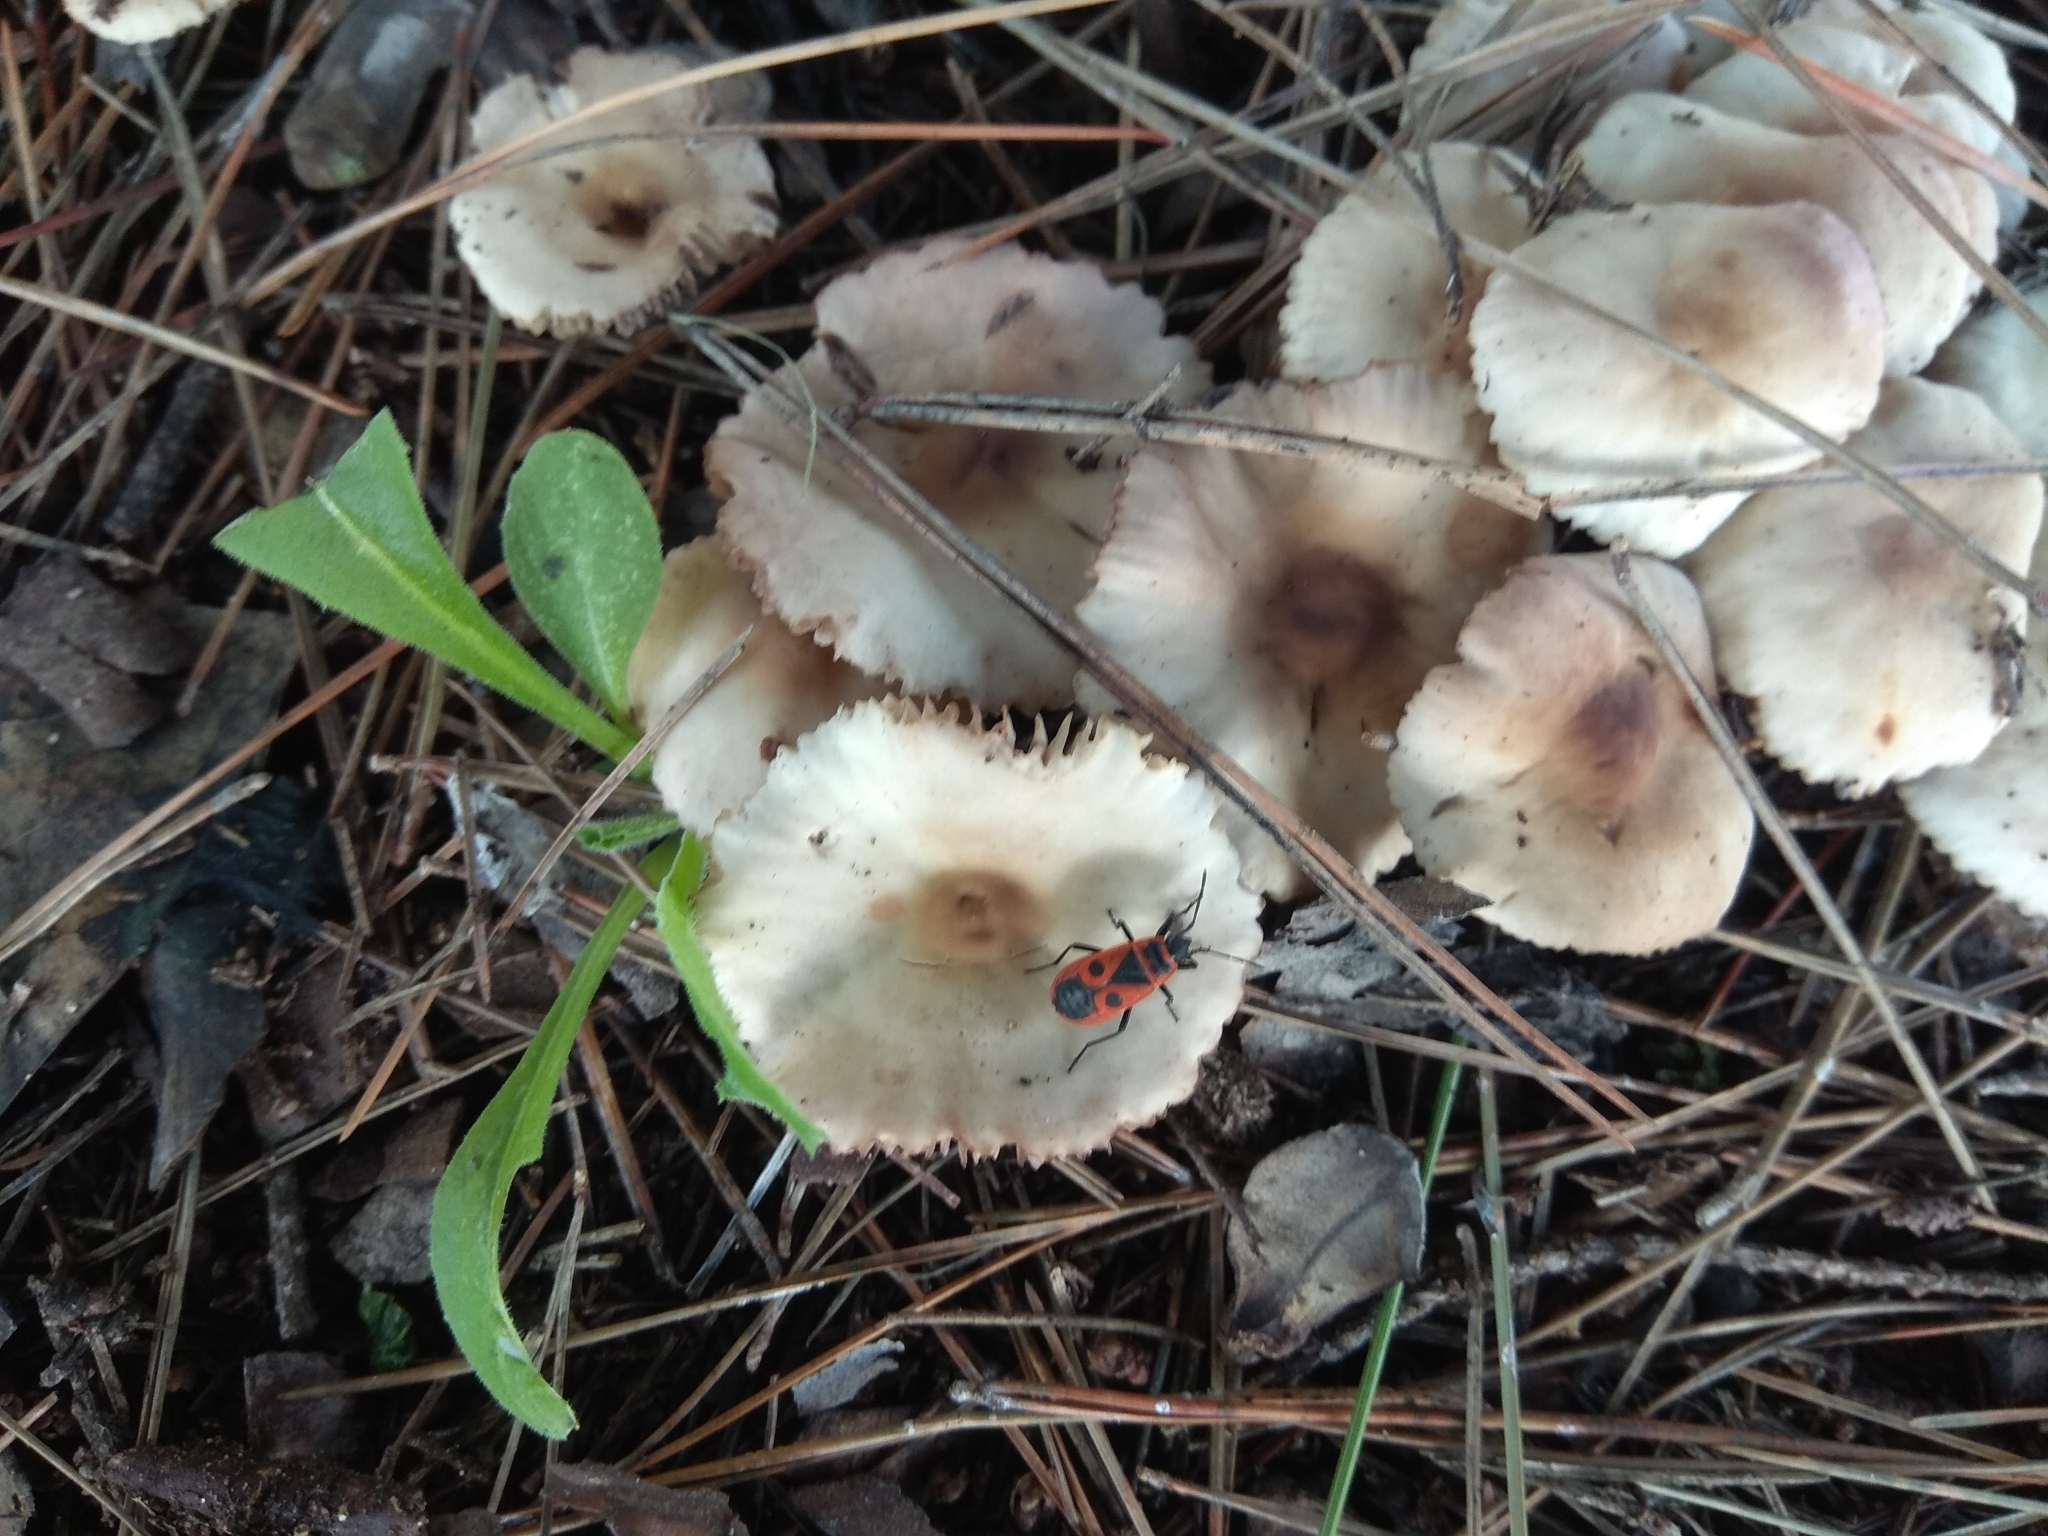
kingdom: Animalia
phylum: Arthropoda
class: Insecta
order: Hemiptera
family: Pyrrhocoridae
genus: Pyrrhocoris
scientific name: Pyrrhocoris apterus
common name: Firebug
